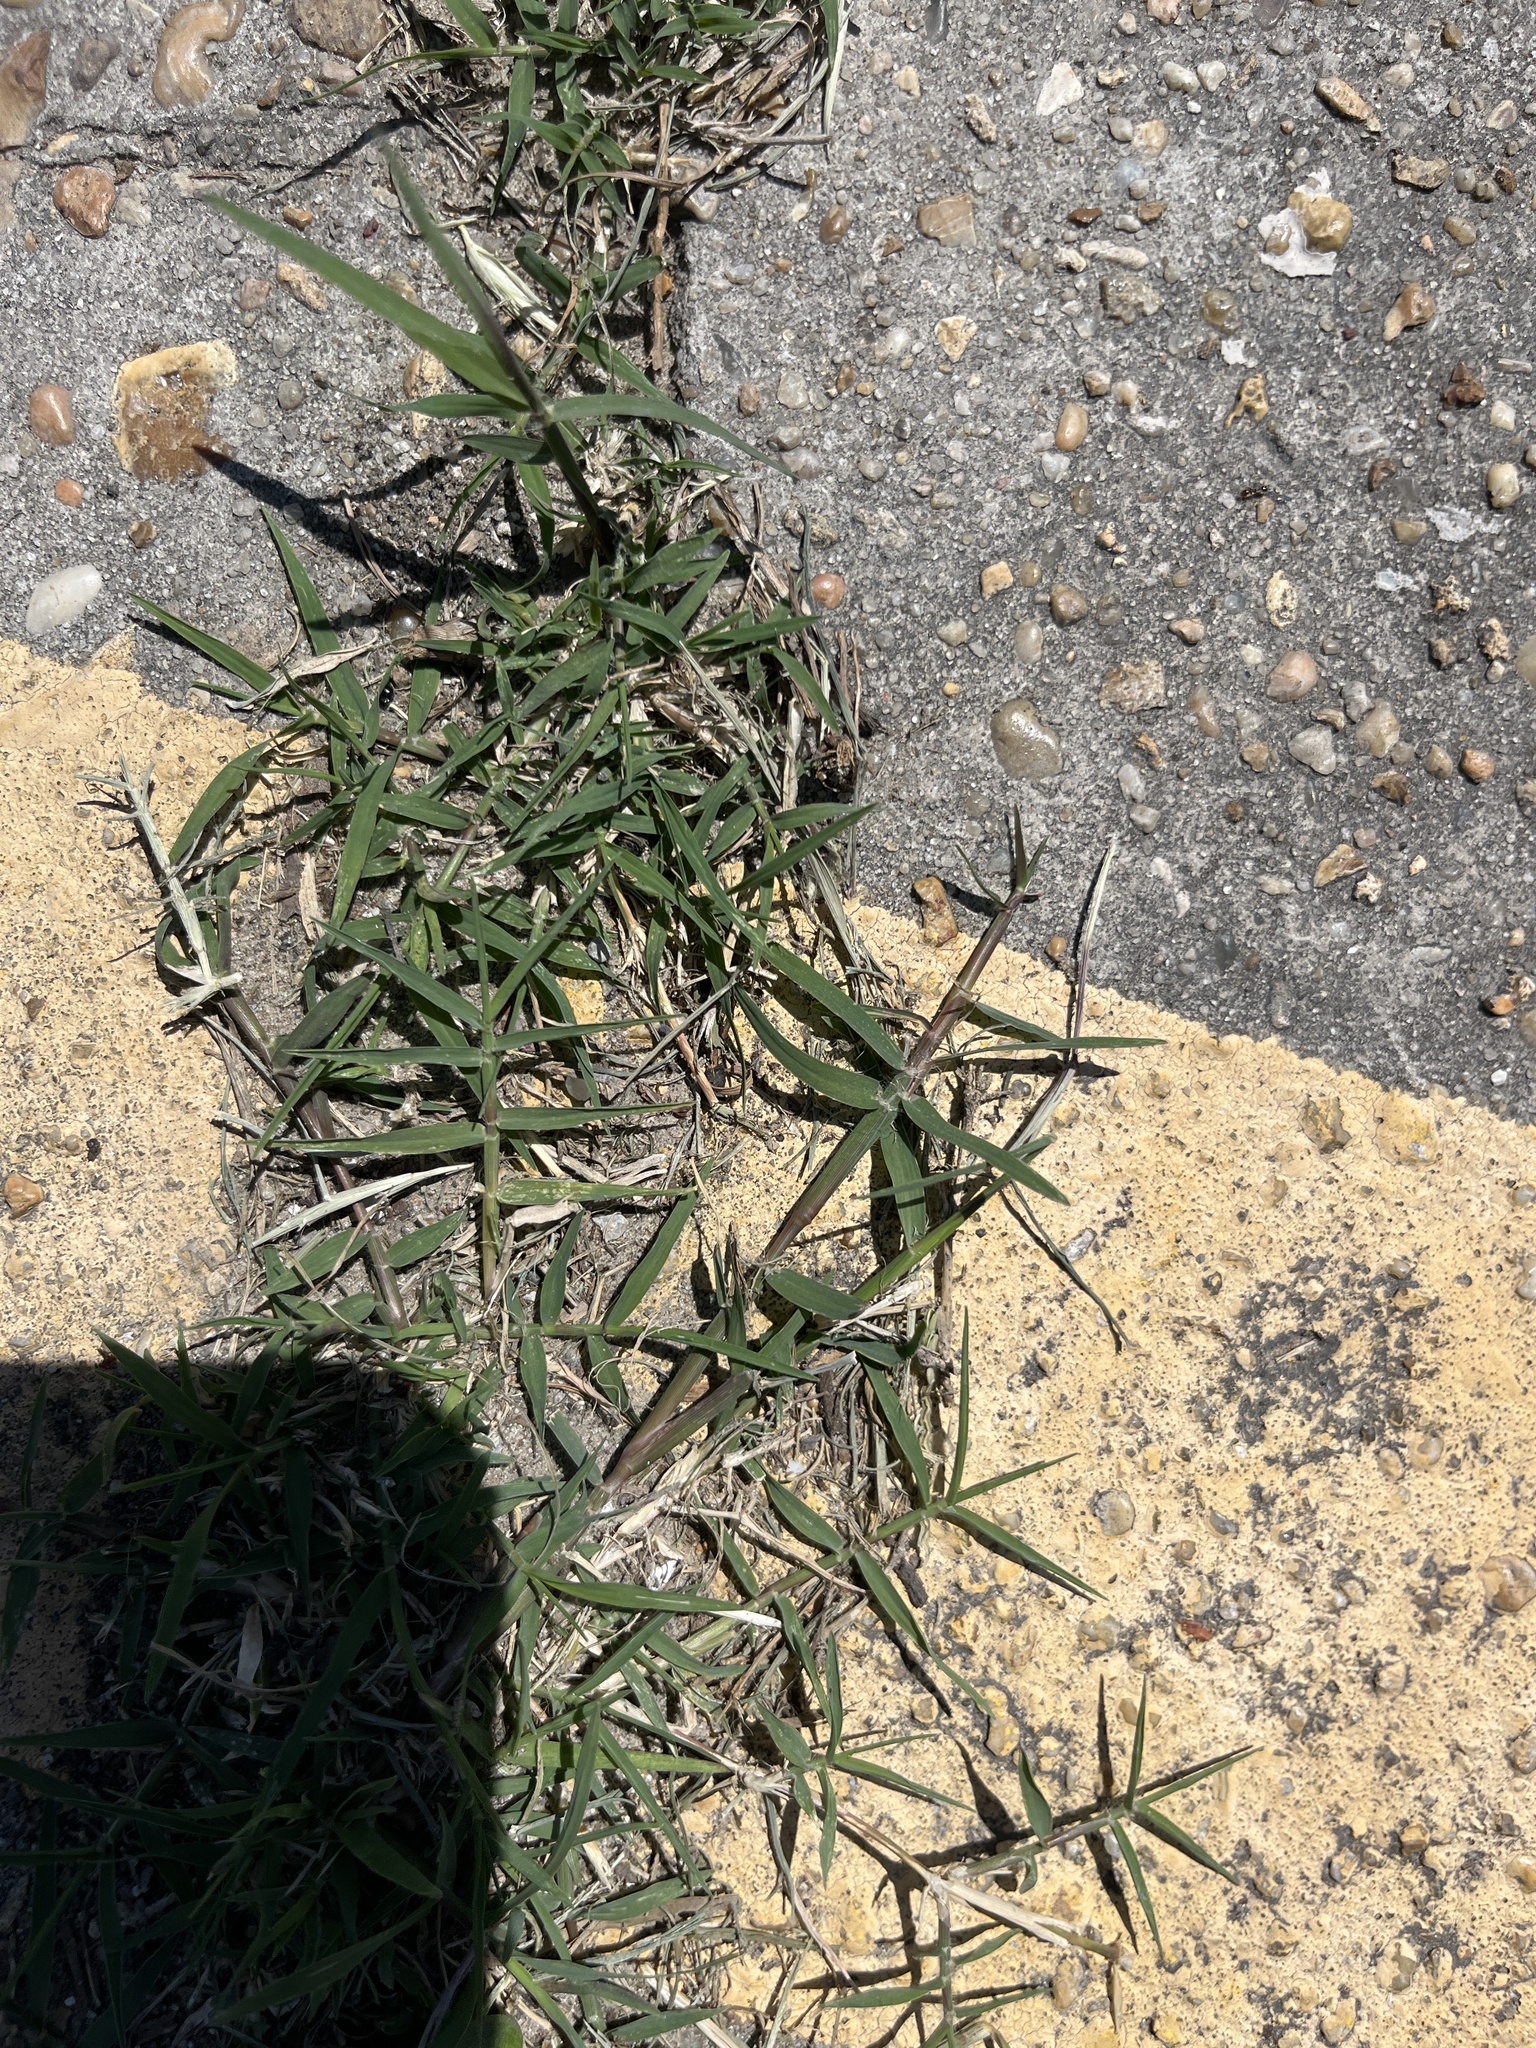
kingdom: Plantae
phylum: Tracheophyta
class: Liliopsida
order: Poales
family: Poaceae
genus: Cynodon
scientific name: Cynodon dactylon
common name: Bermuda grass
